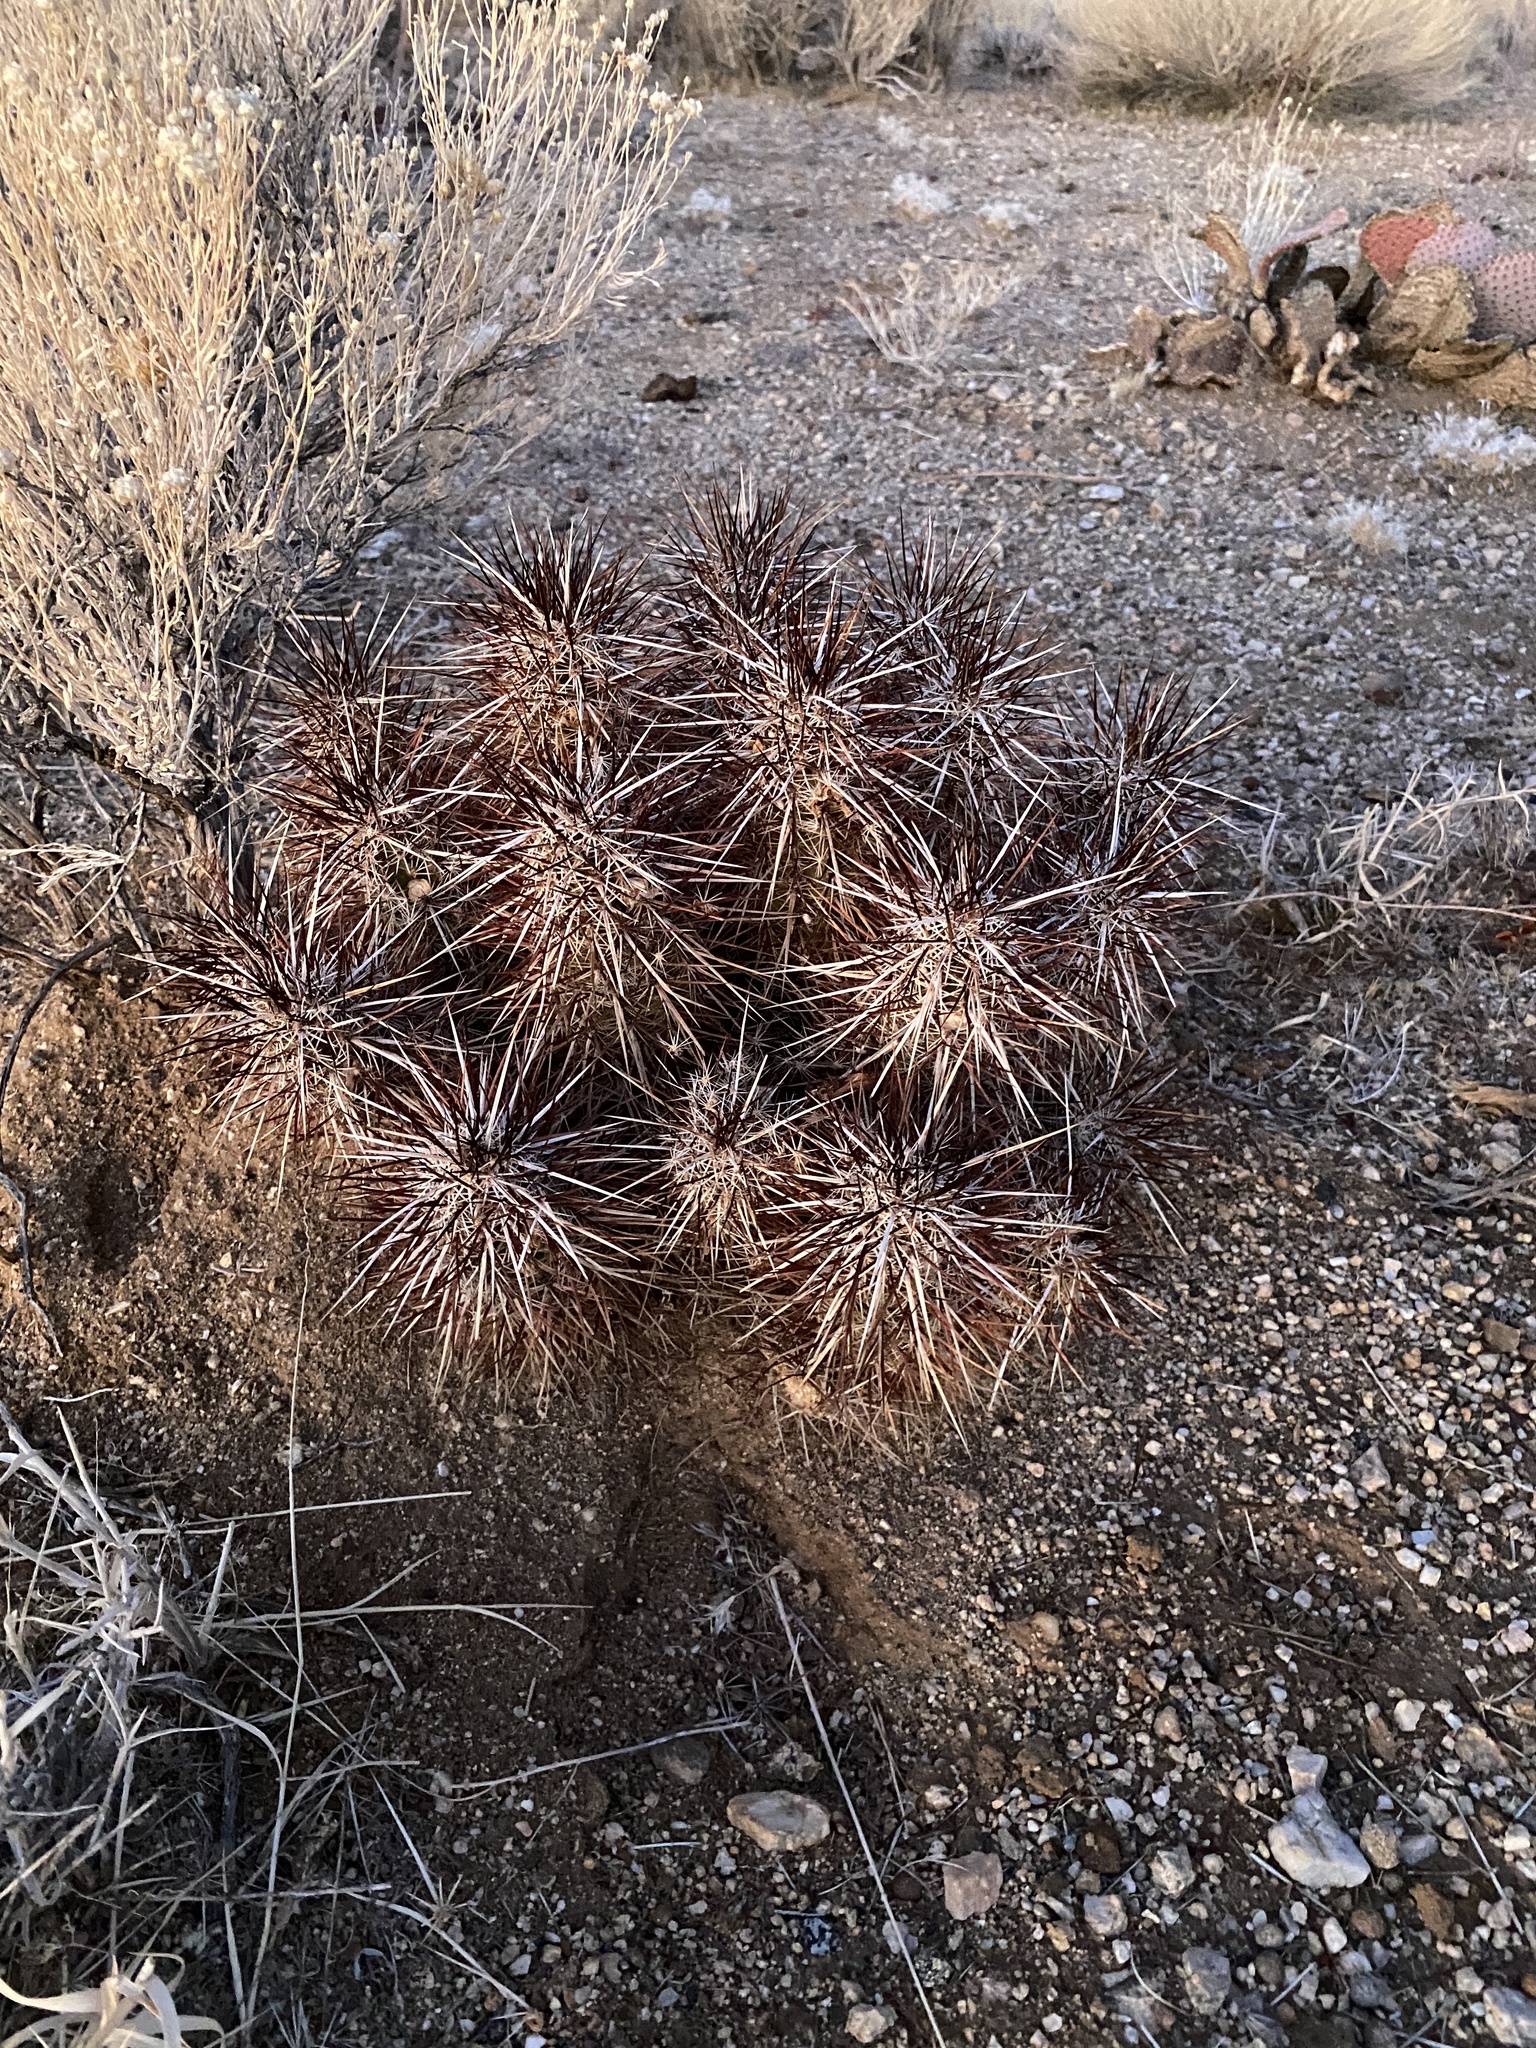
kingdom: Plantae
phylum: Tracheophyta
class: Magnoliopsida
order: Caryophyllales
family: Cactaceae
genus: Echinocereus
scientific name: Echinocereus engelmannii
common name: Engelmann's hedgehog cactus
